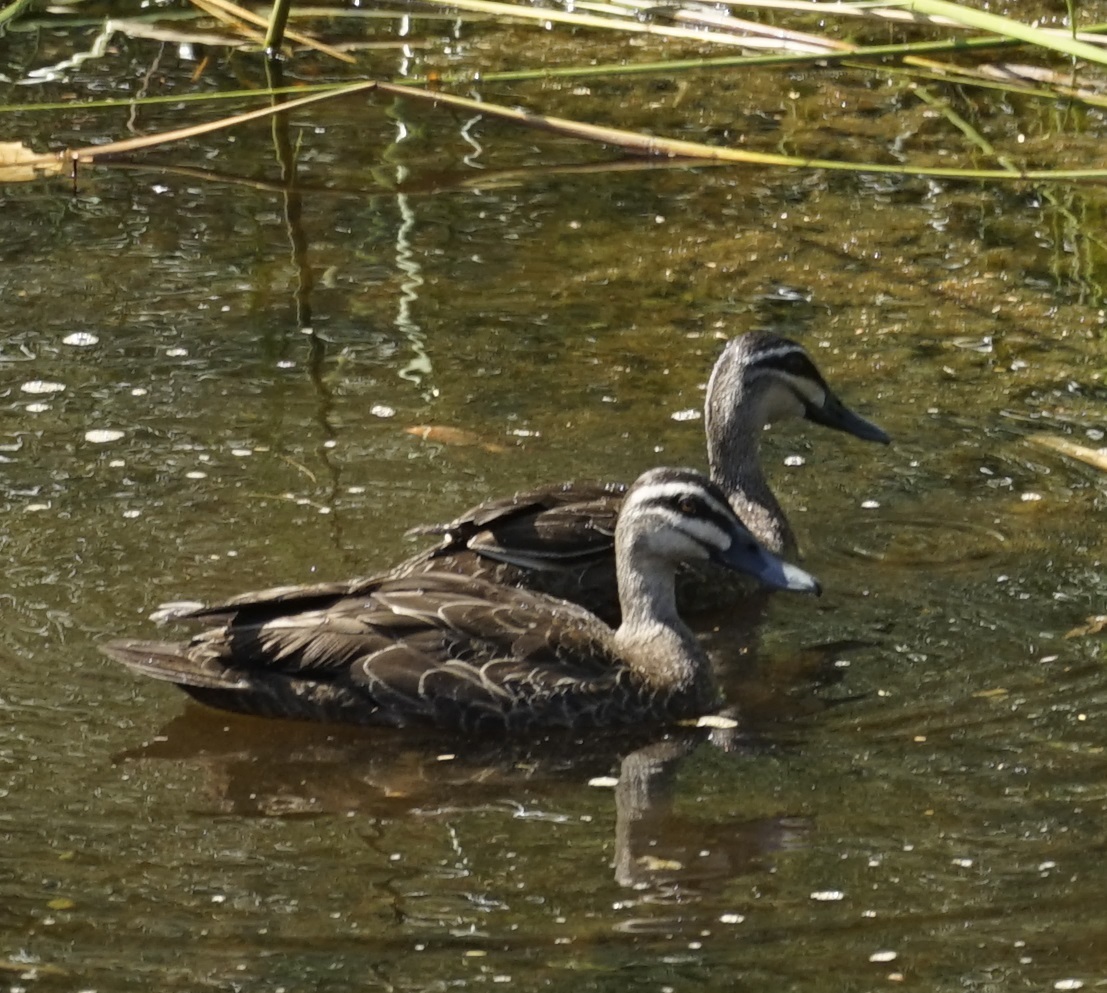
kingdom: Animalia
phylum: Chordata
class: Aves
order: Anseriformes
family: Anatidae
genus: Anas
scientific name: Anas superciliosa
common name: Pacific black duck
